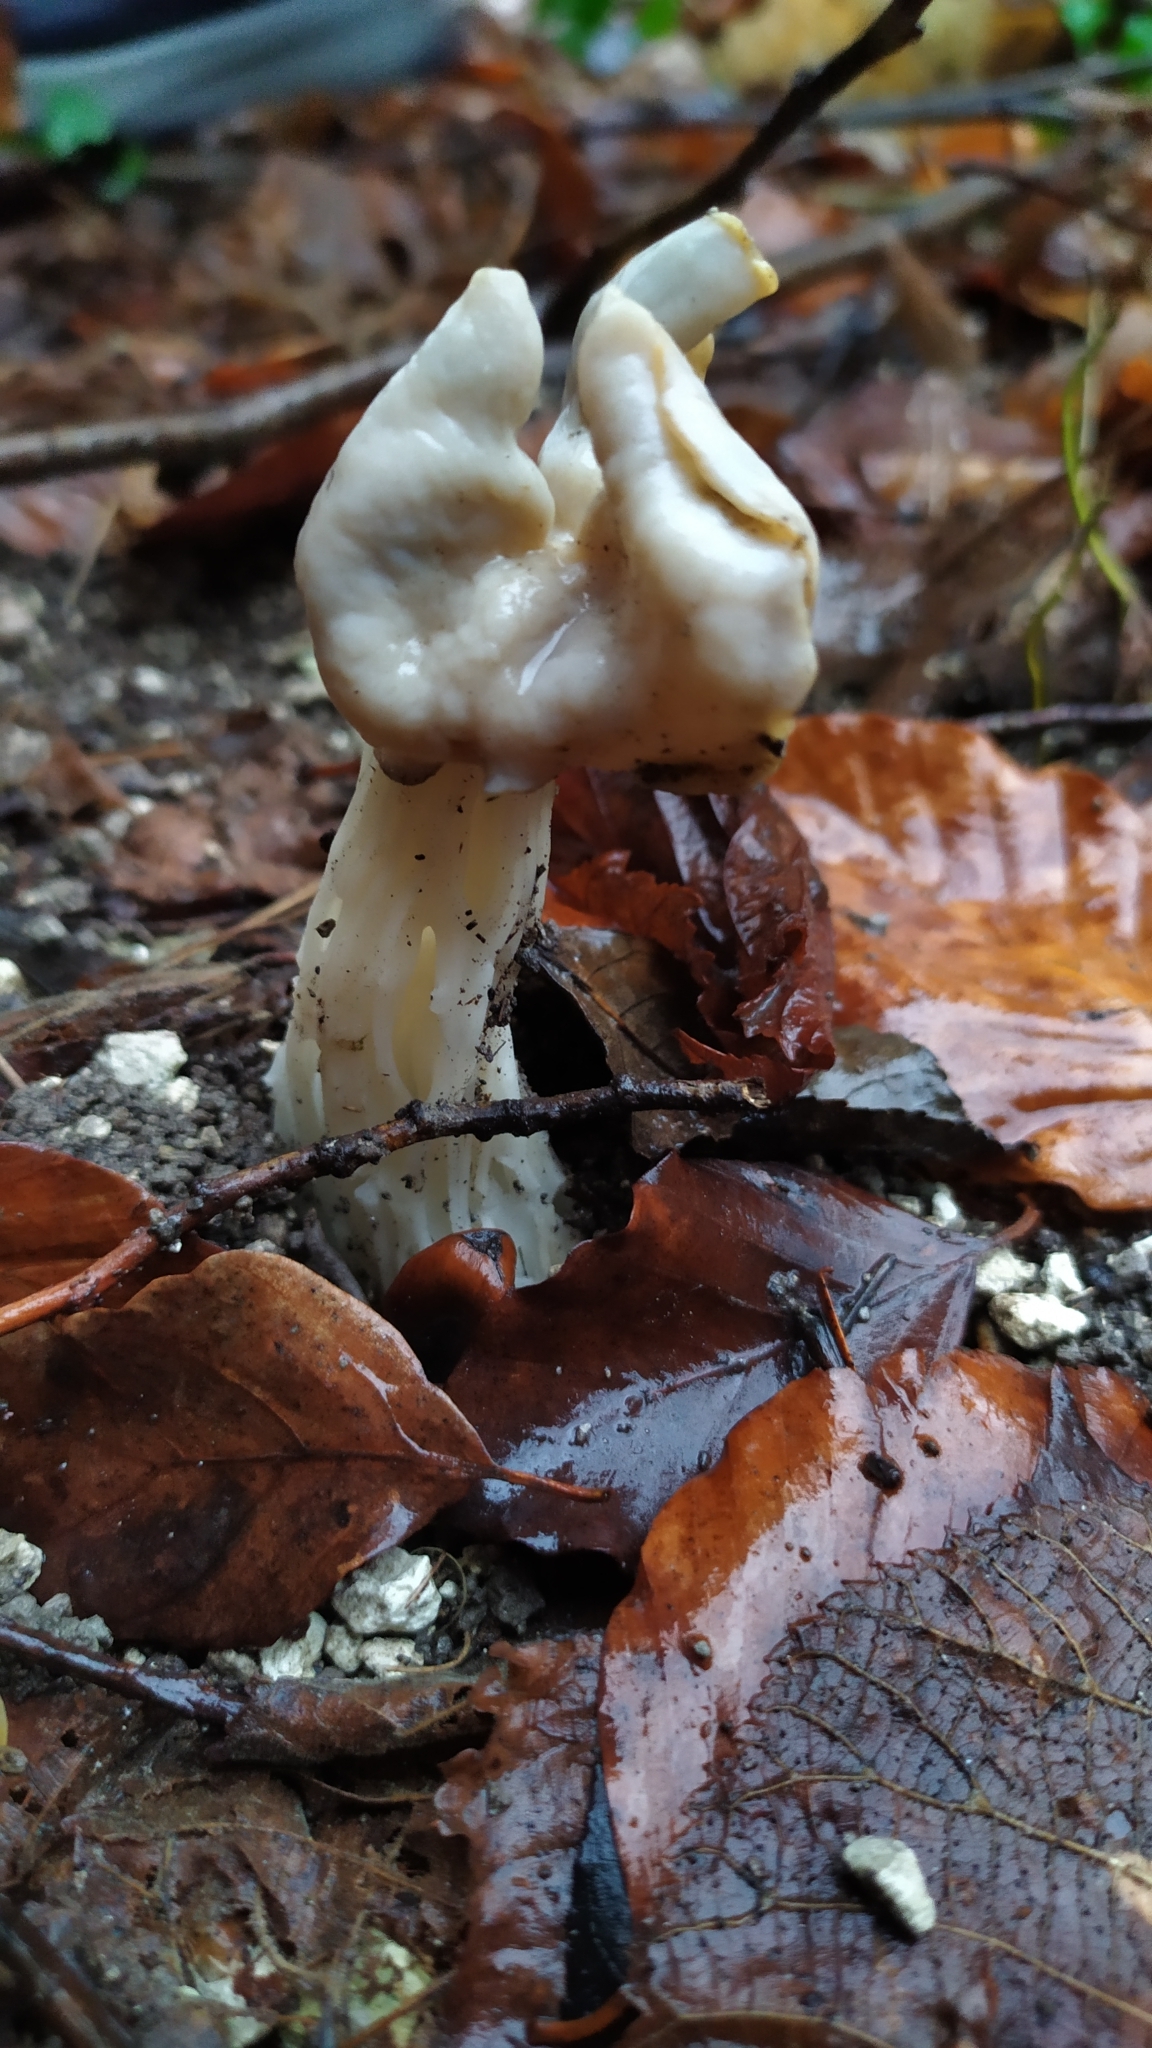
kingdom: Fungi
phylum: Ascomycota
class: Pezizomycetes
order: Pezizales
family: Helvellaceae
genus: Helvella
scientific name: Helvella crispa
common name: White saddle
